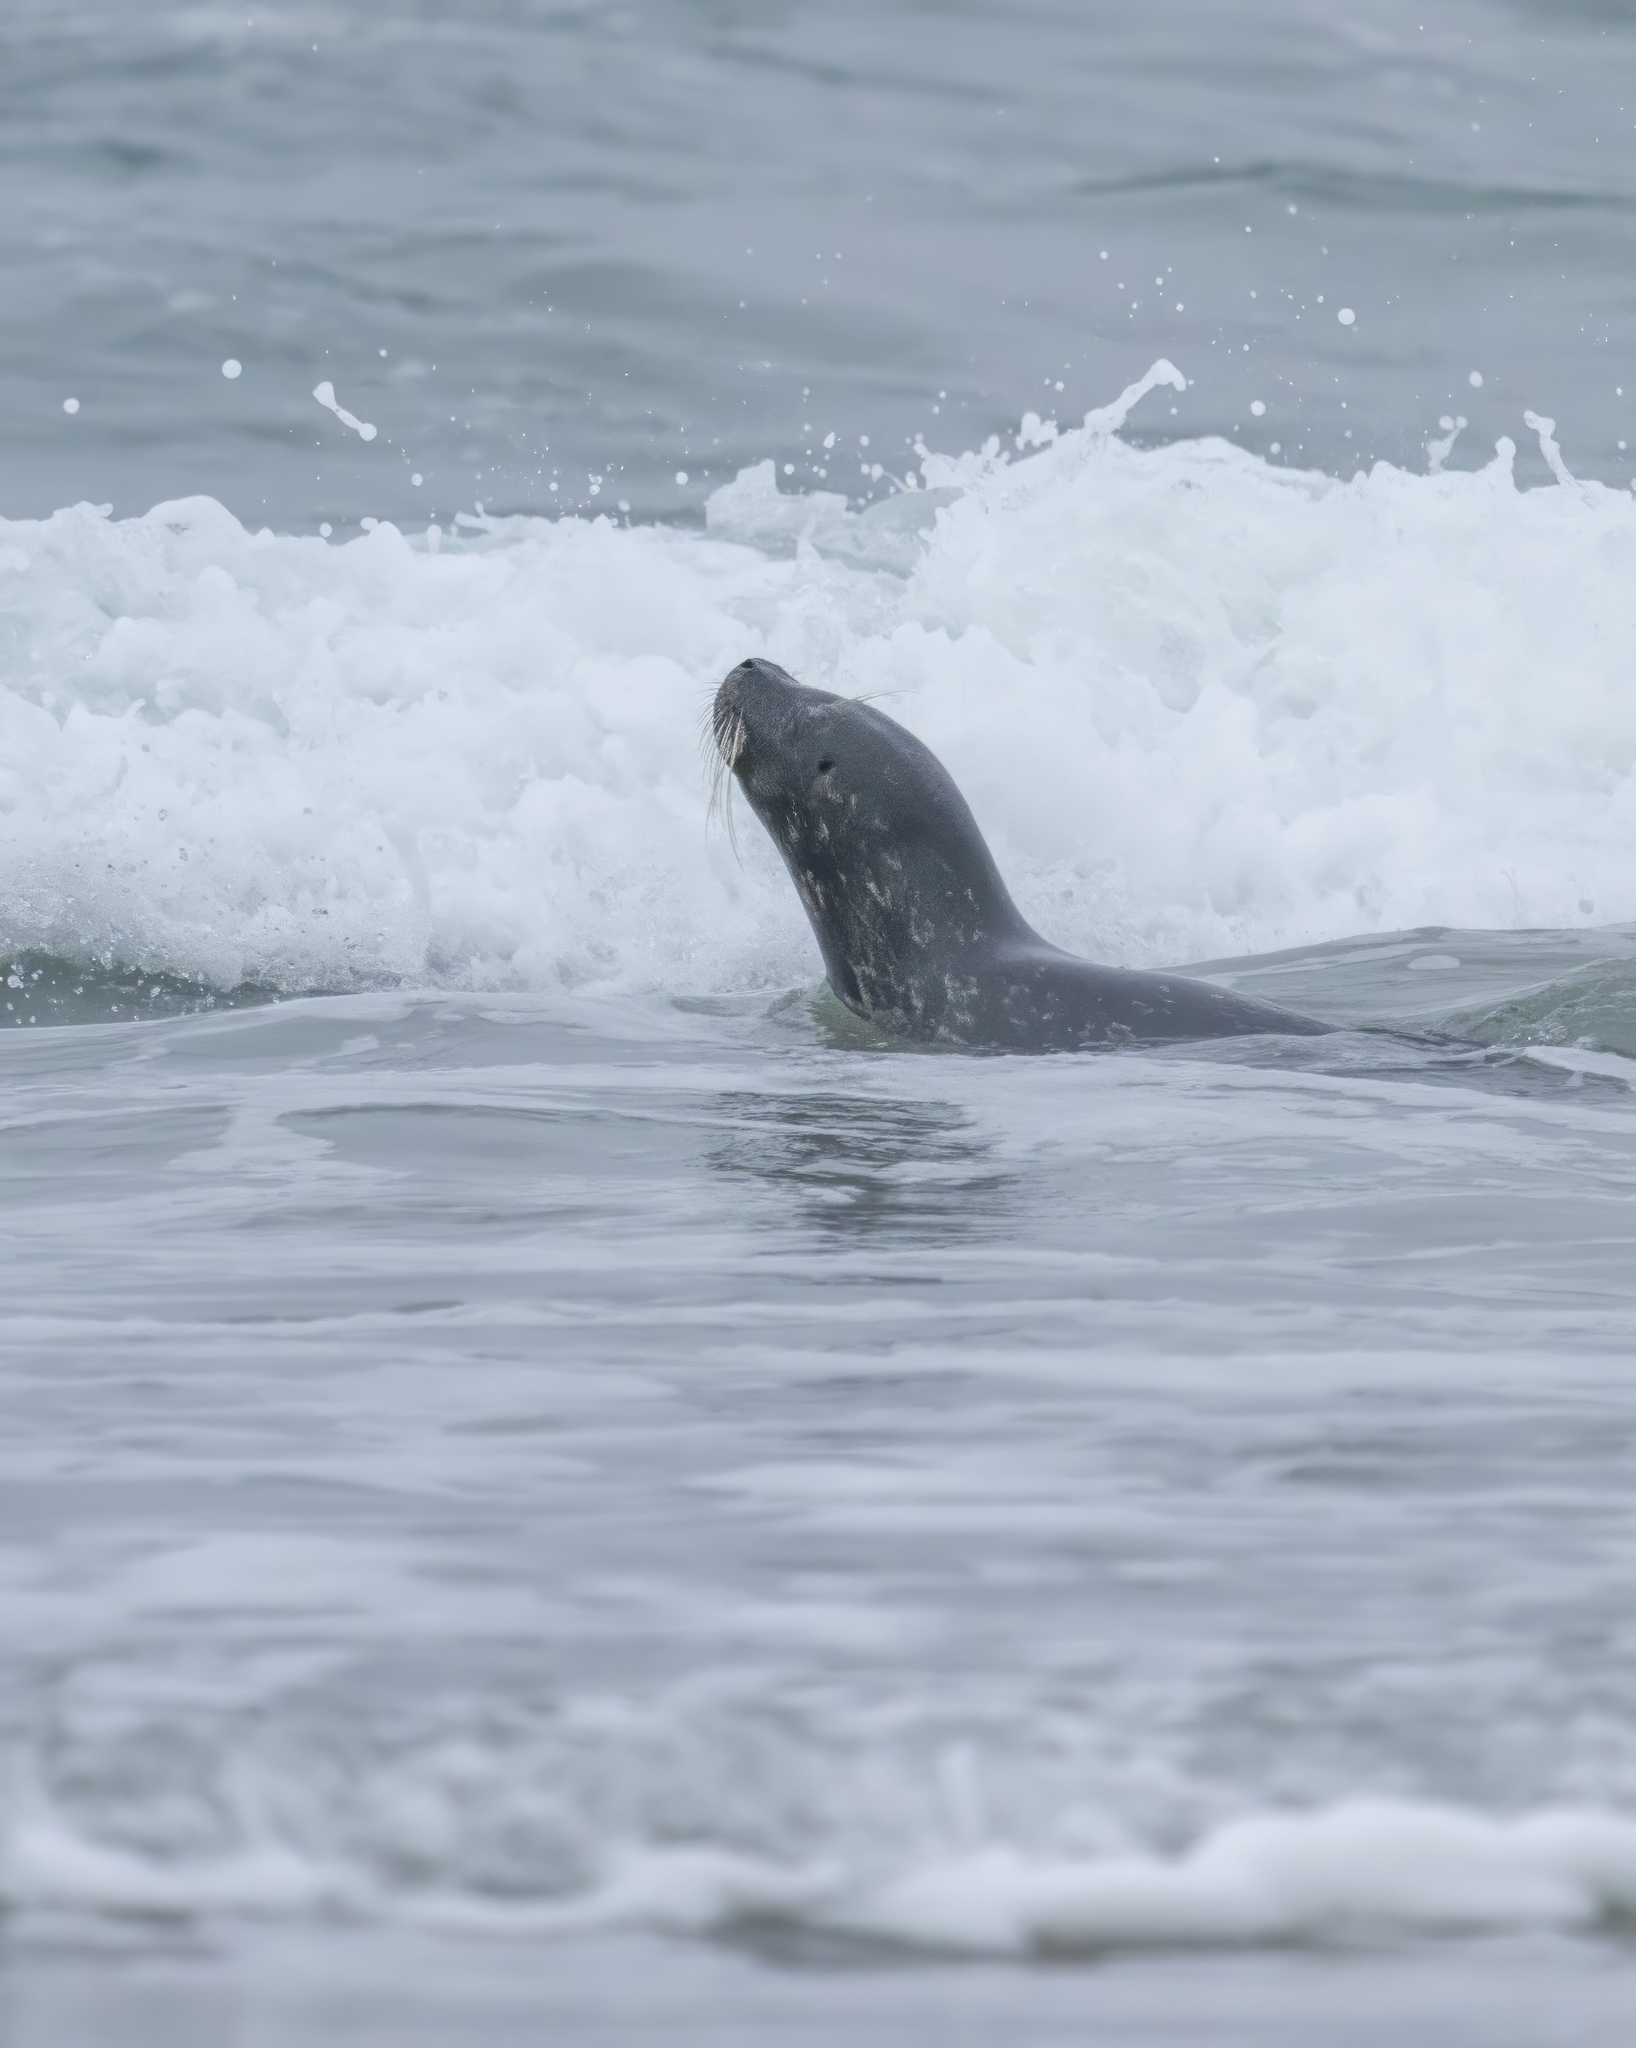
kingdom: Animalia
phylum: Chordata
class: Mammalia
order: Carnivora
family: Phocidae
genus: Phoca
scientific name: Phoca vitulina
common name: Harbor seal
